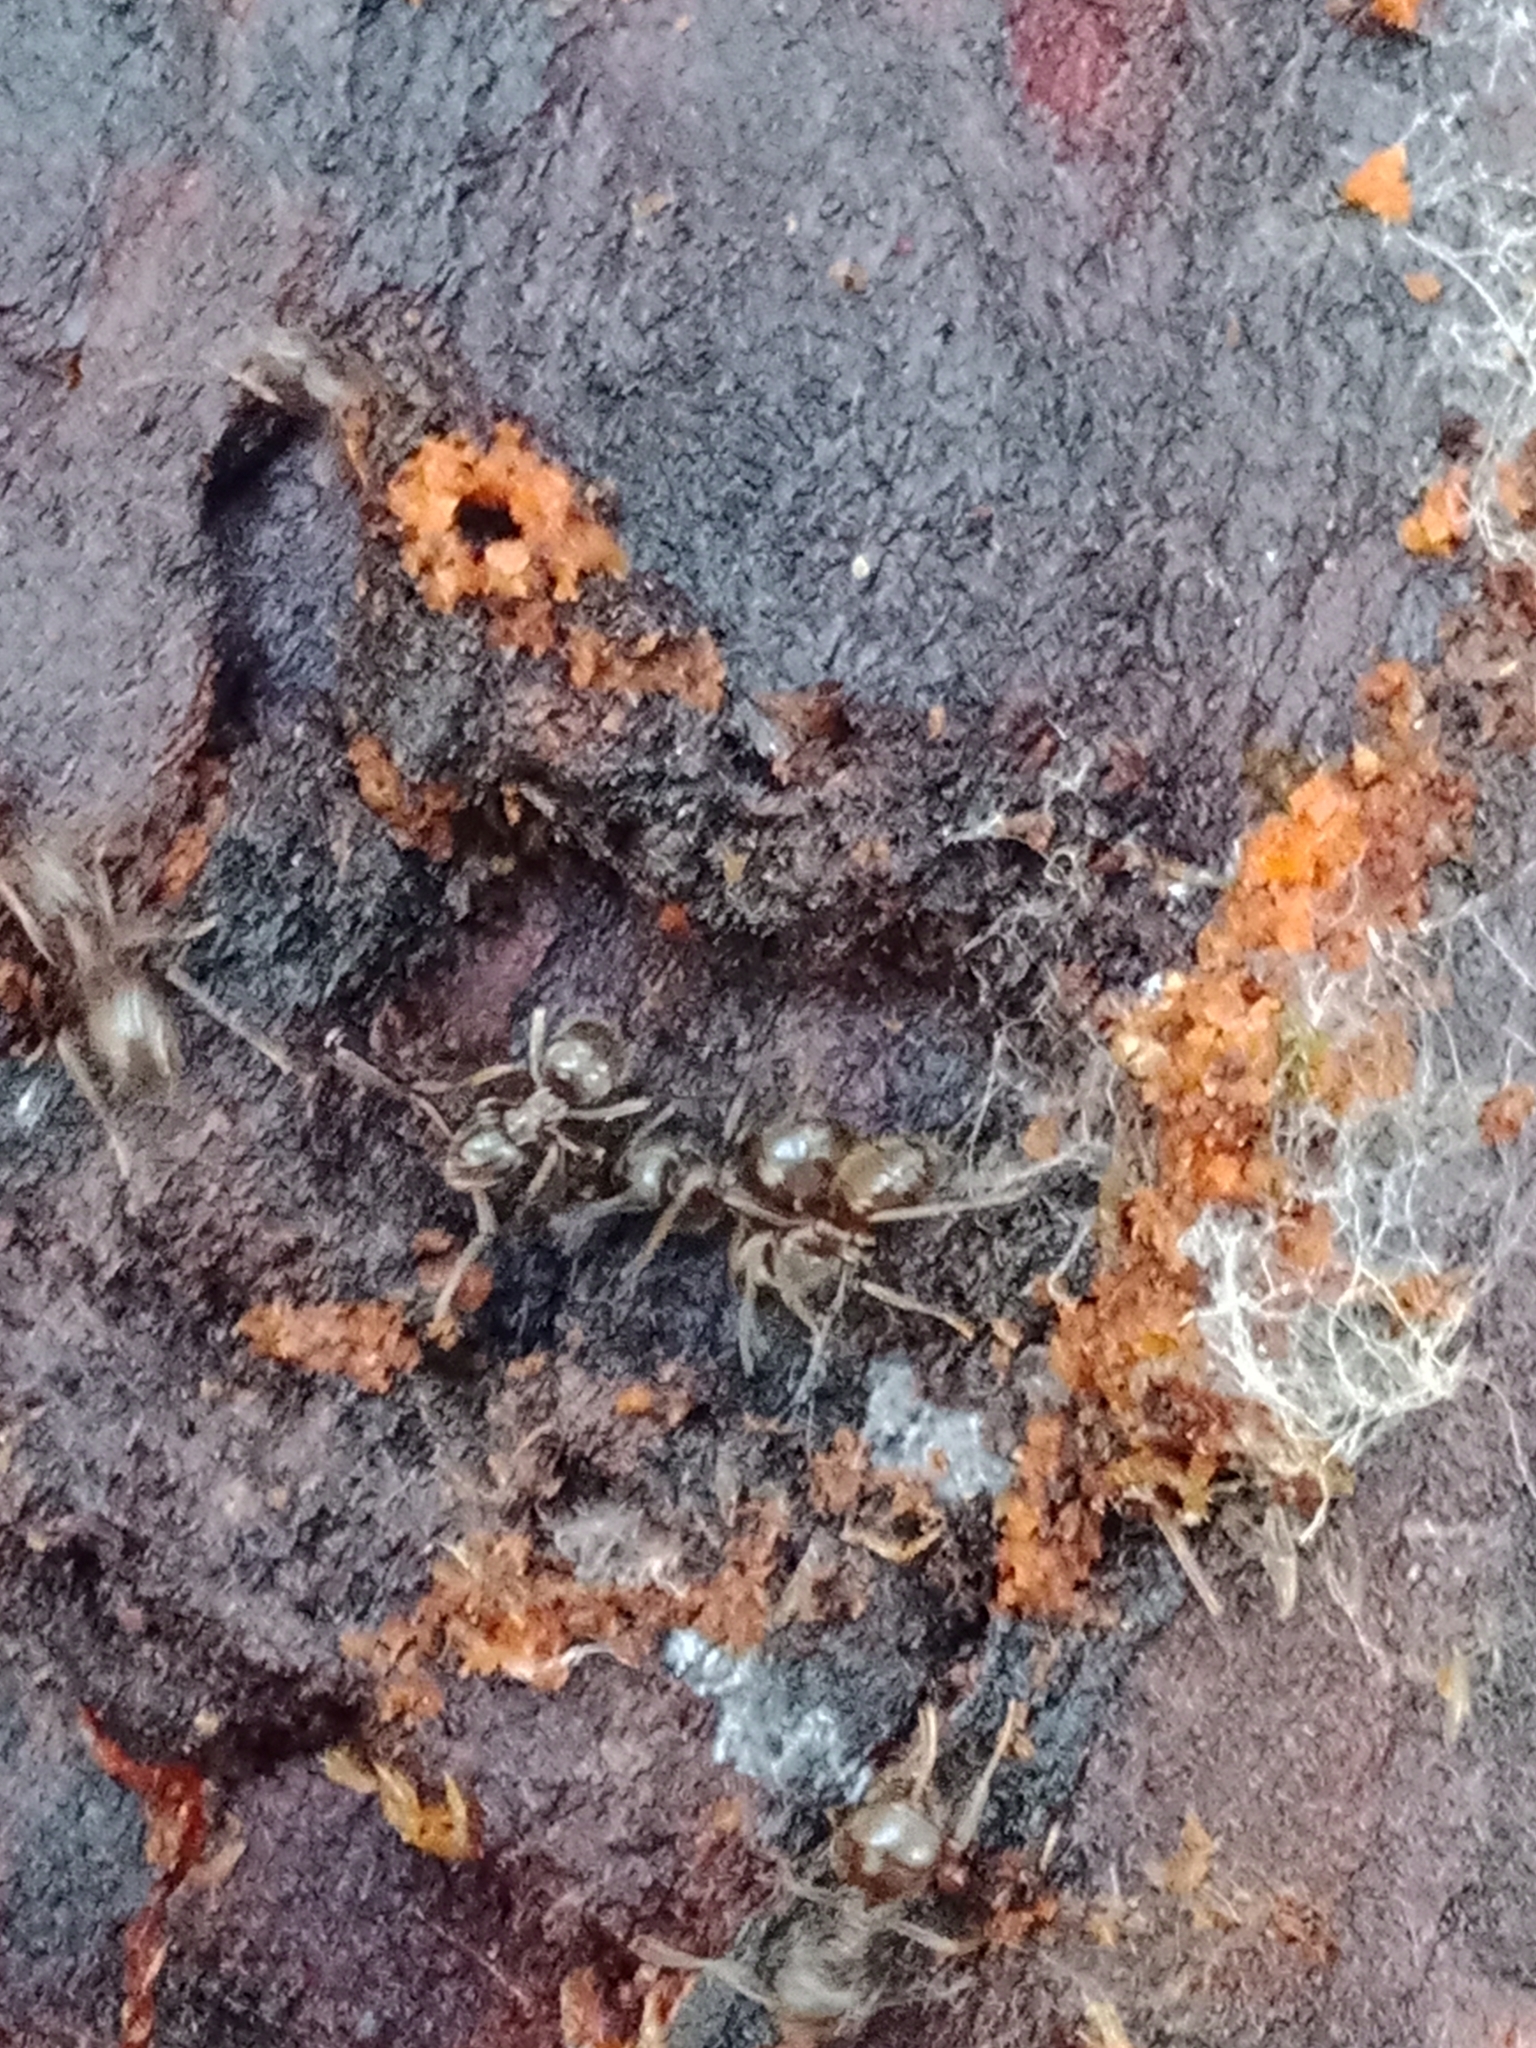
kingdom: Animalia
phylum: Arthropoda
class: Insecta
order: Hymenoptera
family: Formicidae
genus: Lasius
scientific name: Lasius niger
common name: Small black ant
